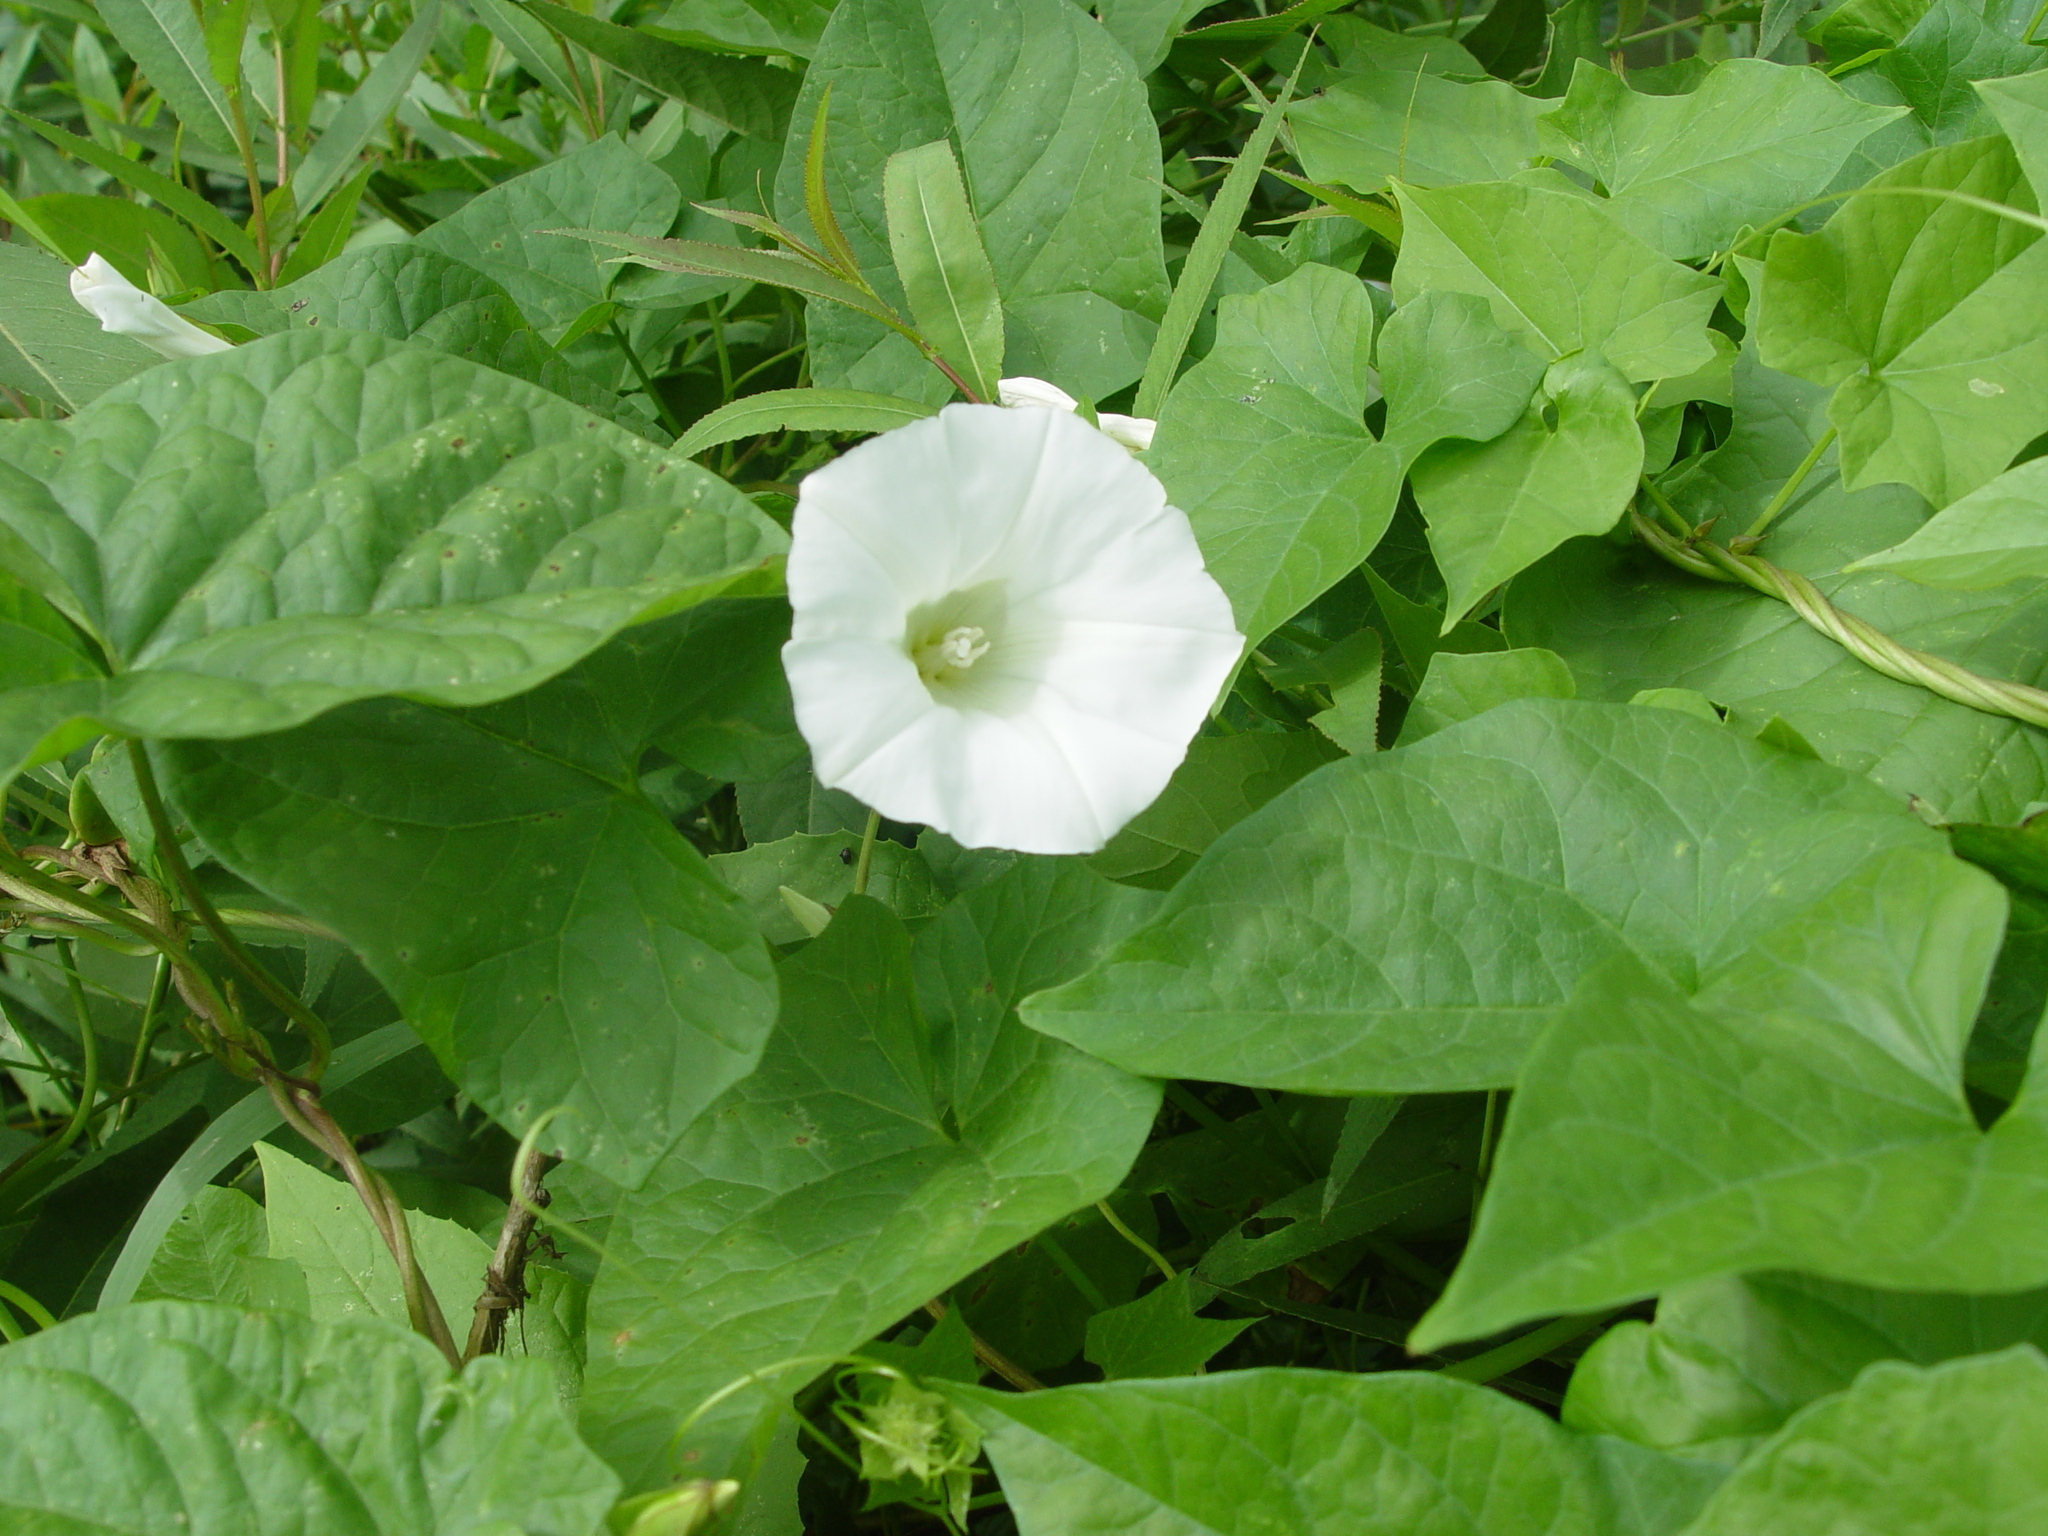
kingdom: Plantae
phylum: Tracheophyta
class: Magnoliopsida
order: Solanales
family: Convolvulaceae
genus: Calystegia
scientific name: Calystegia sepium
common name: Hedge bindweed
